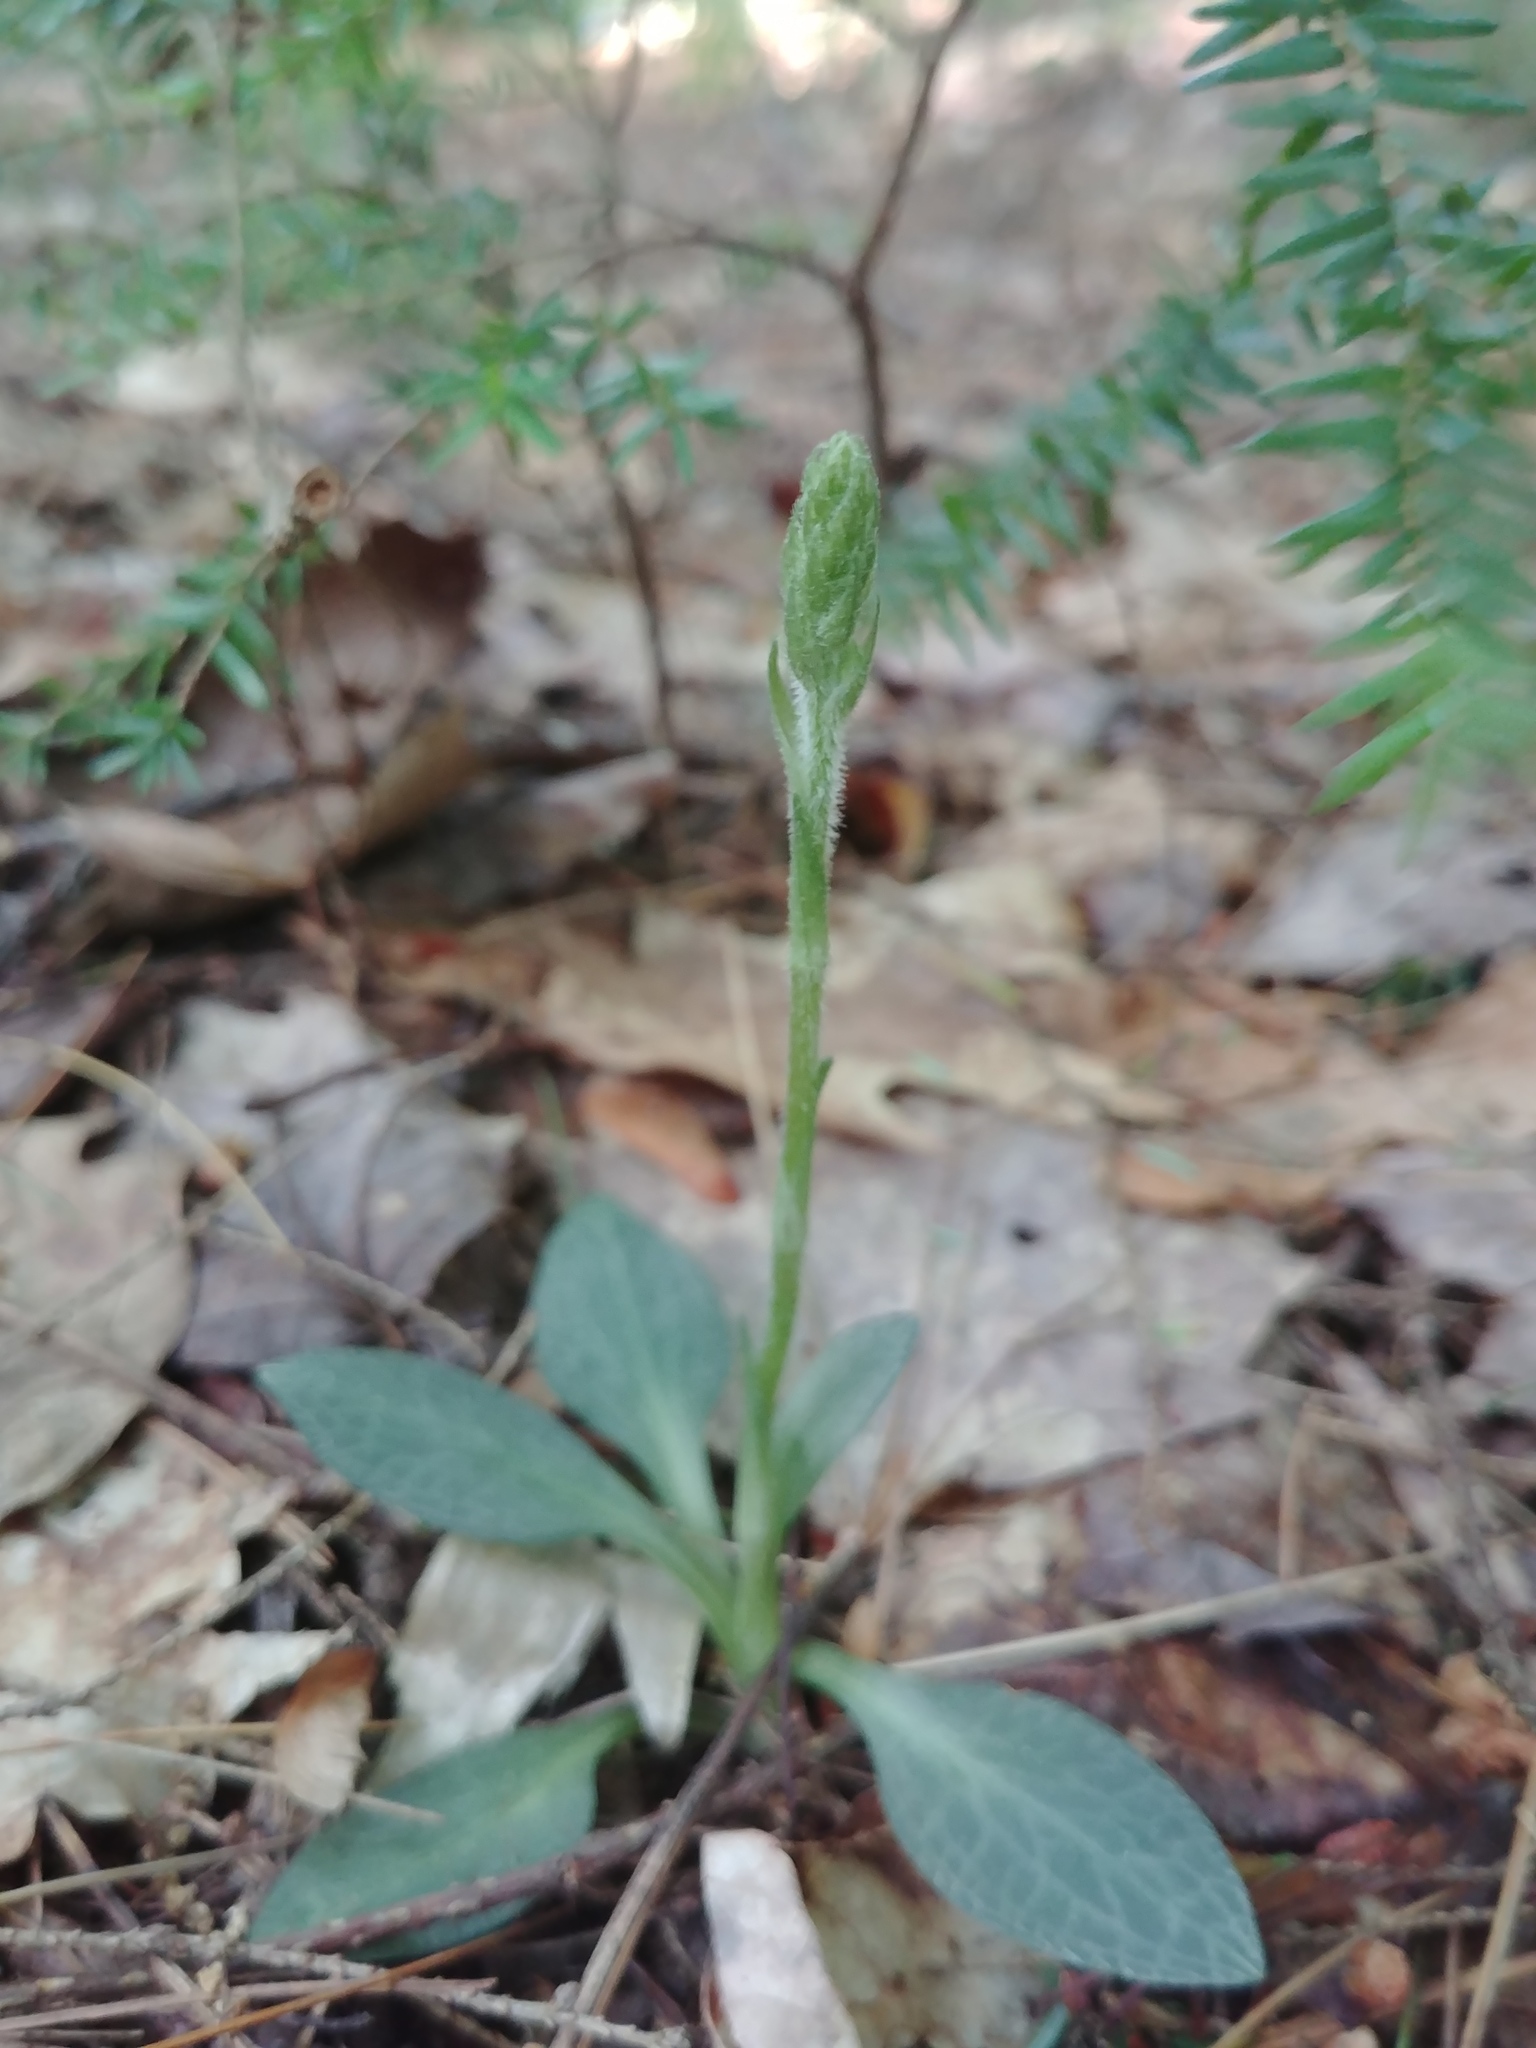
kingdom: Plantae
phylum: Tracheophyta
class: Liliopsida
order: Asparagales
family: Orchidaceae
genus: Goodyera
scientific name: Goodyera tesselata
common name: Checkered rattlesnake-plantain
